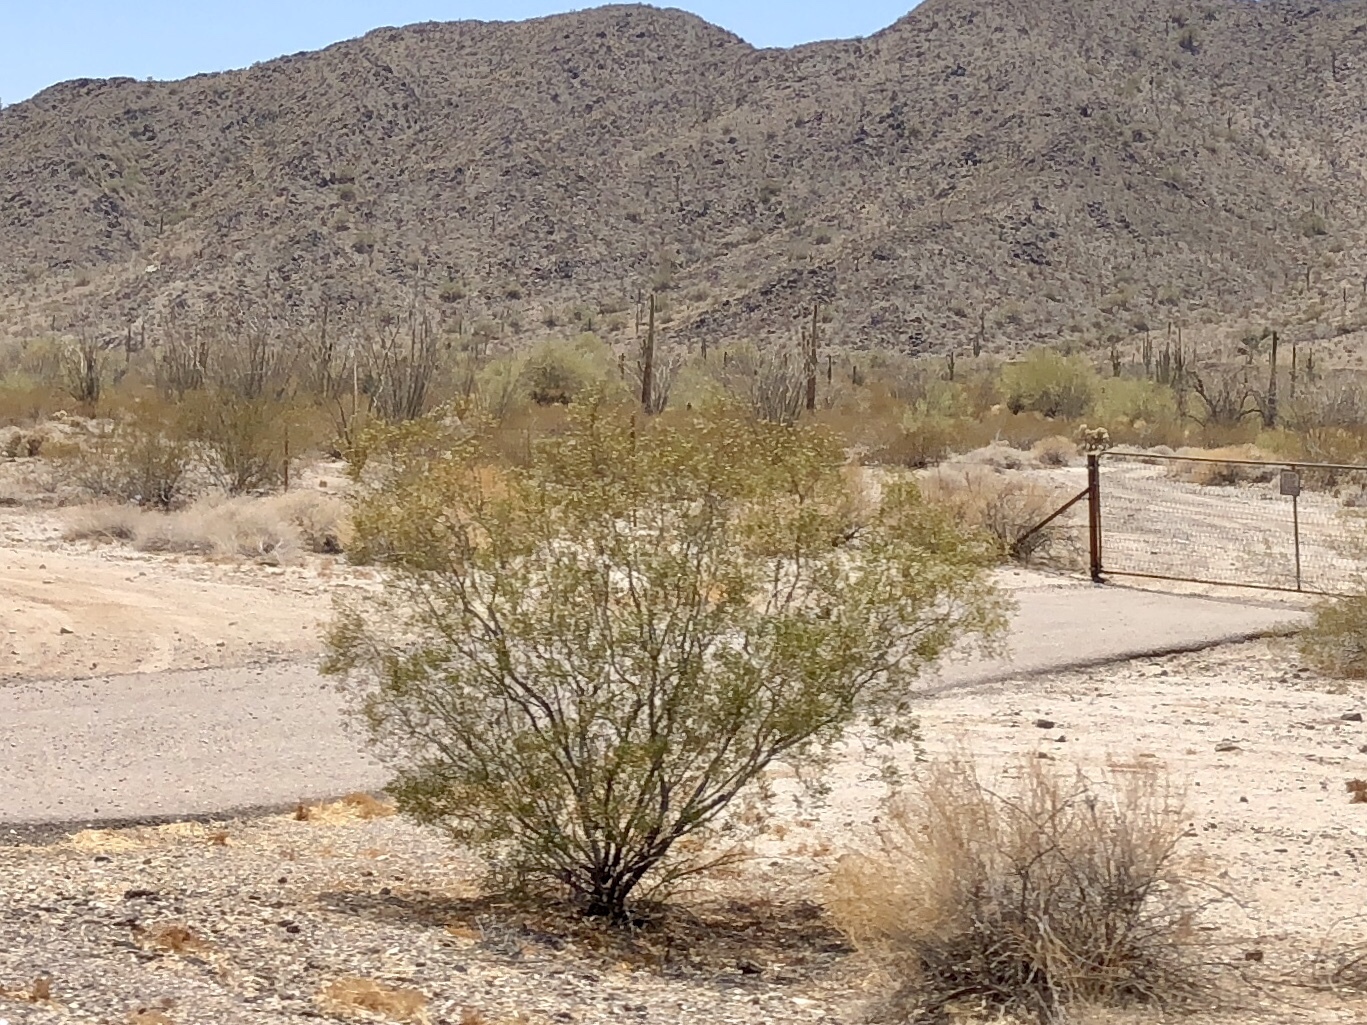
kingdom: Plantae
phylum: Tracheophyta
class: Magnoliopsida
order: Zygophyllales
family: Zygophyllaceae
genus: Larrea
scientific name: Larrea tridentata
